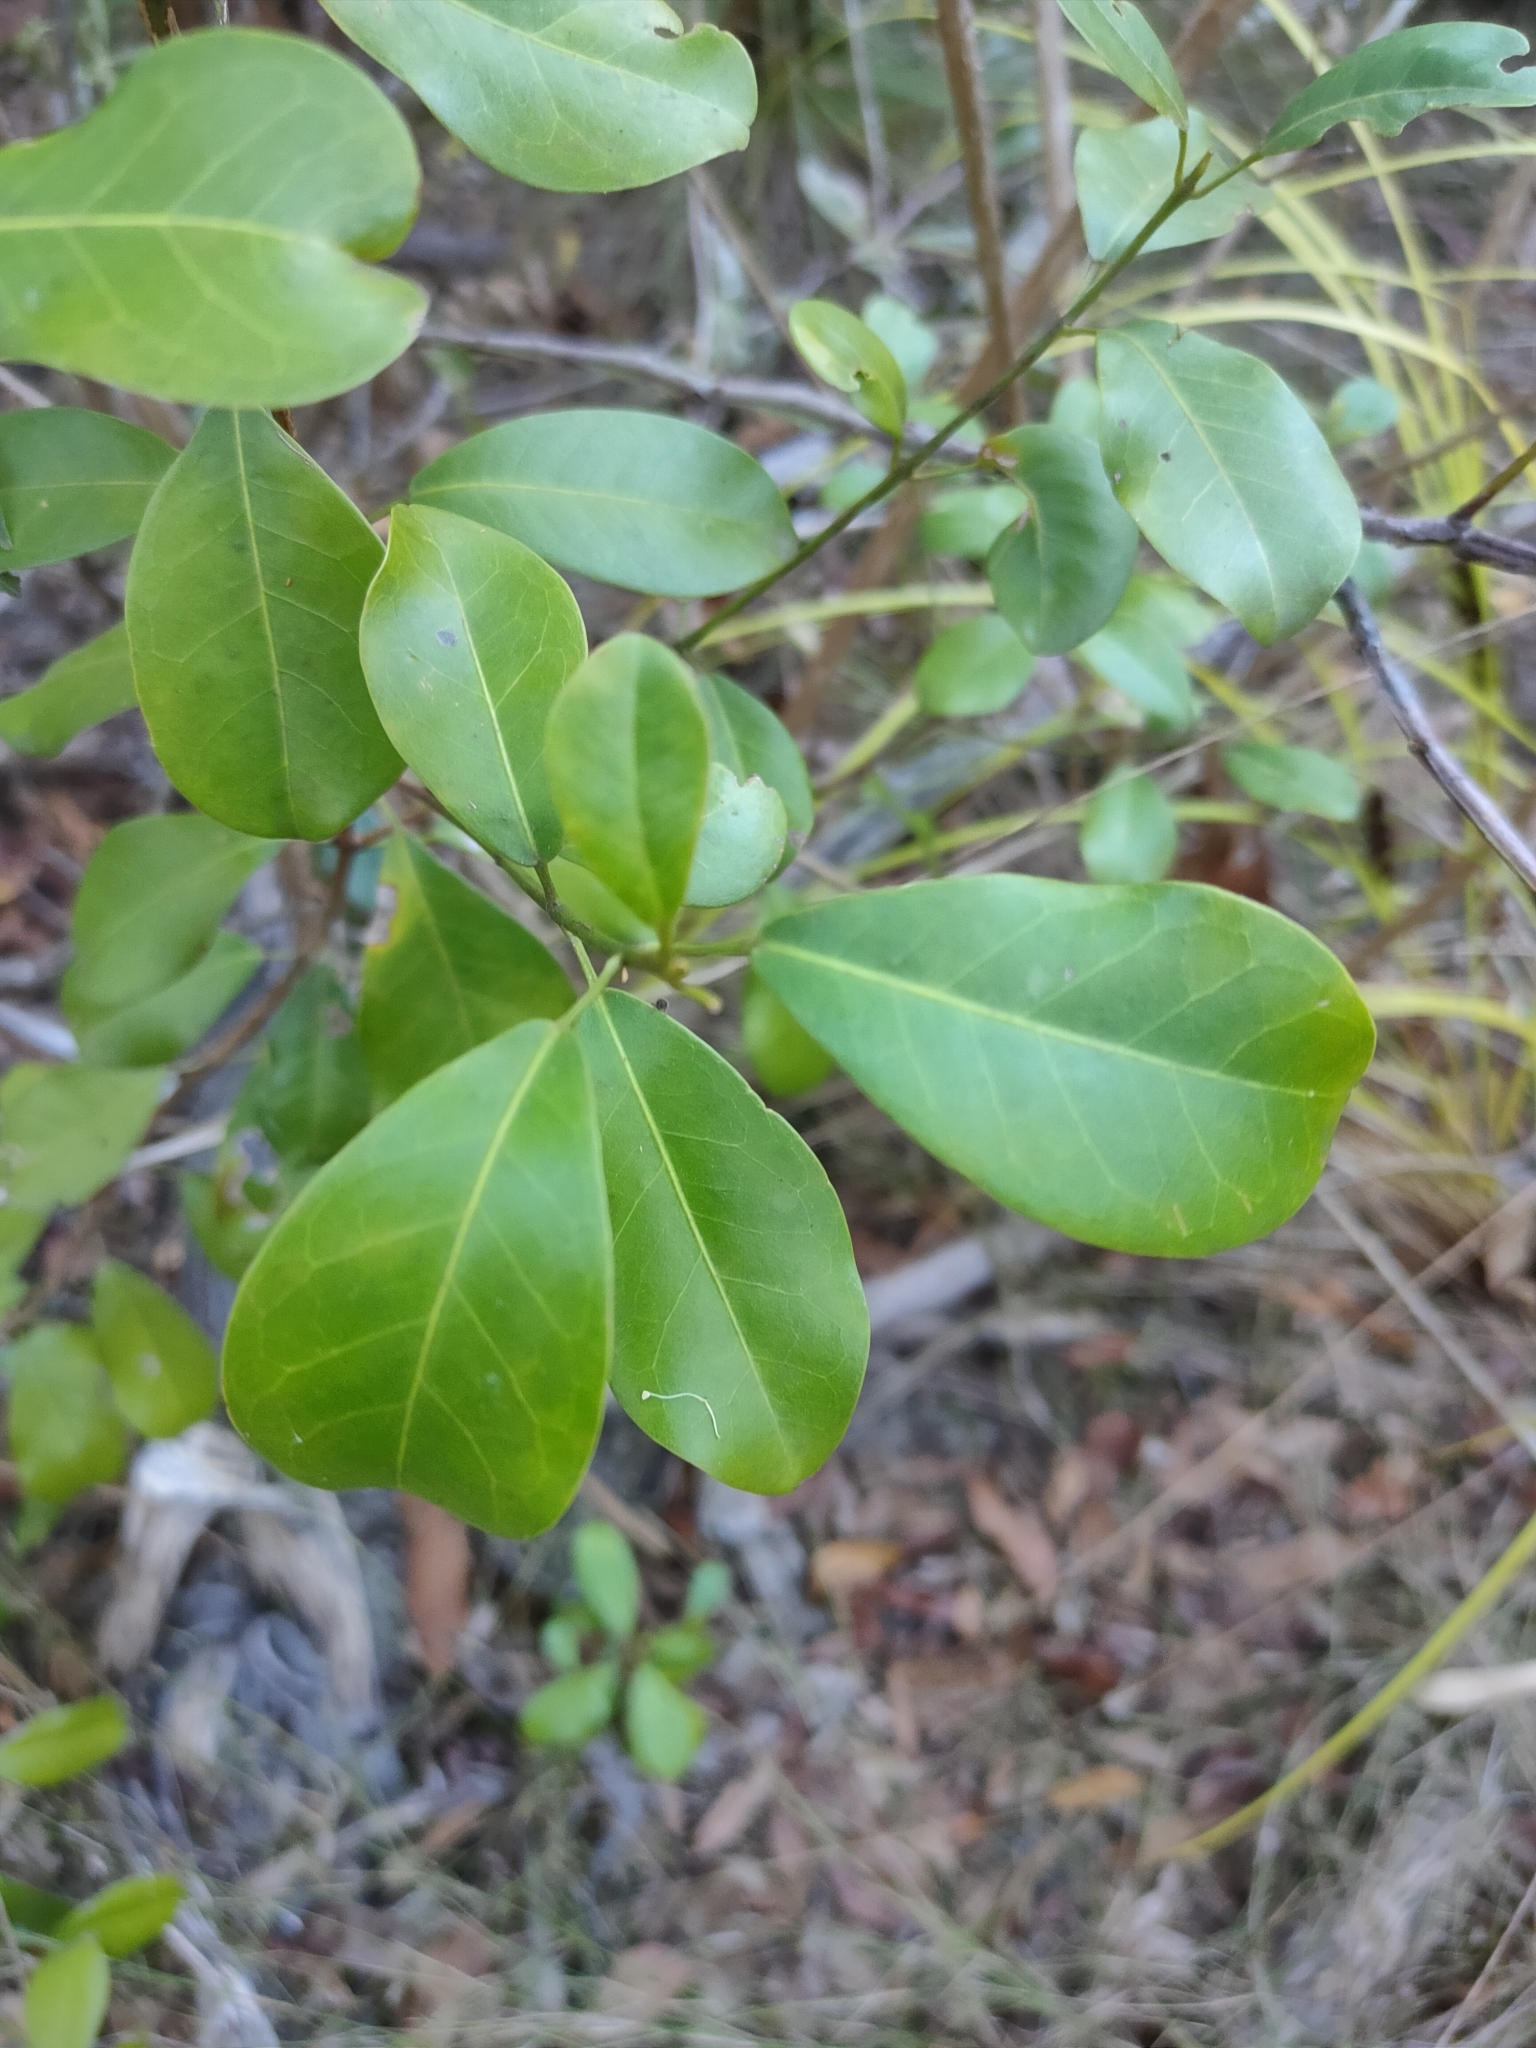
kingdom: Plantae
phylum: Tracheophyta
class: Magnoliopsida
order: Sapindales
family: Rutaceae
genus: Acronychia
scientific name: Acronychia laevis
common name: Hard aspen
